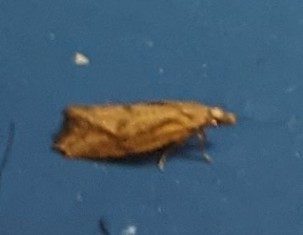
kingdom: Animalia
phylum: Arthropoda
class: Insecta
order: Lepidoptera
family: Tortricidae
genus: Aethes
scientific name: Aethes biscana
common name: Reddish aethes
